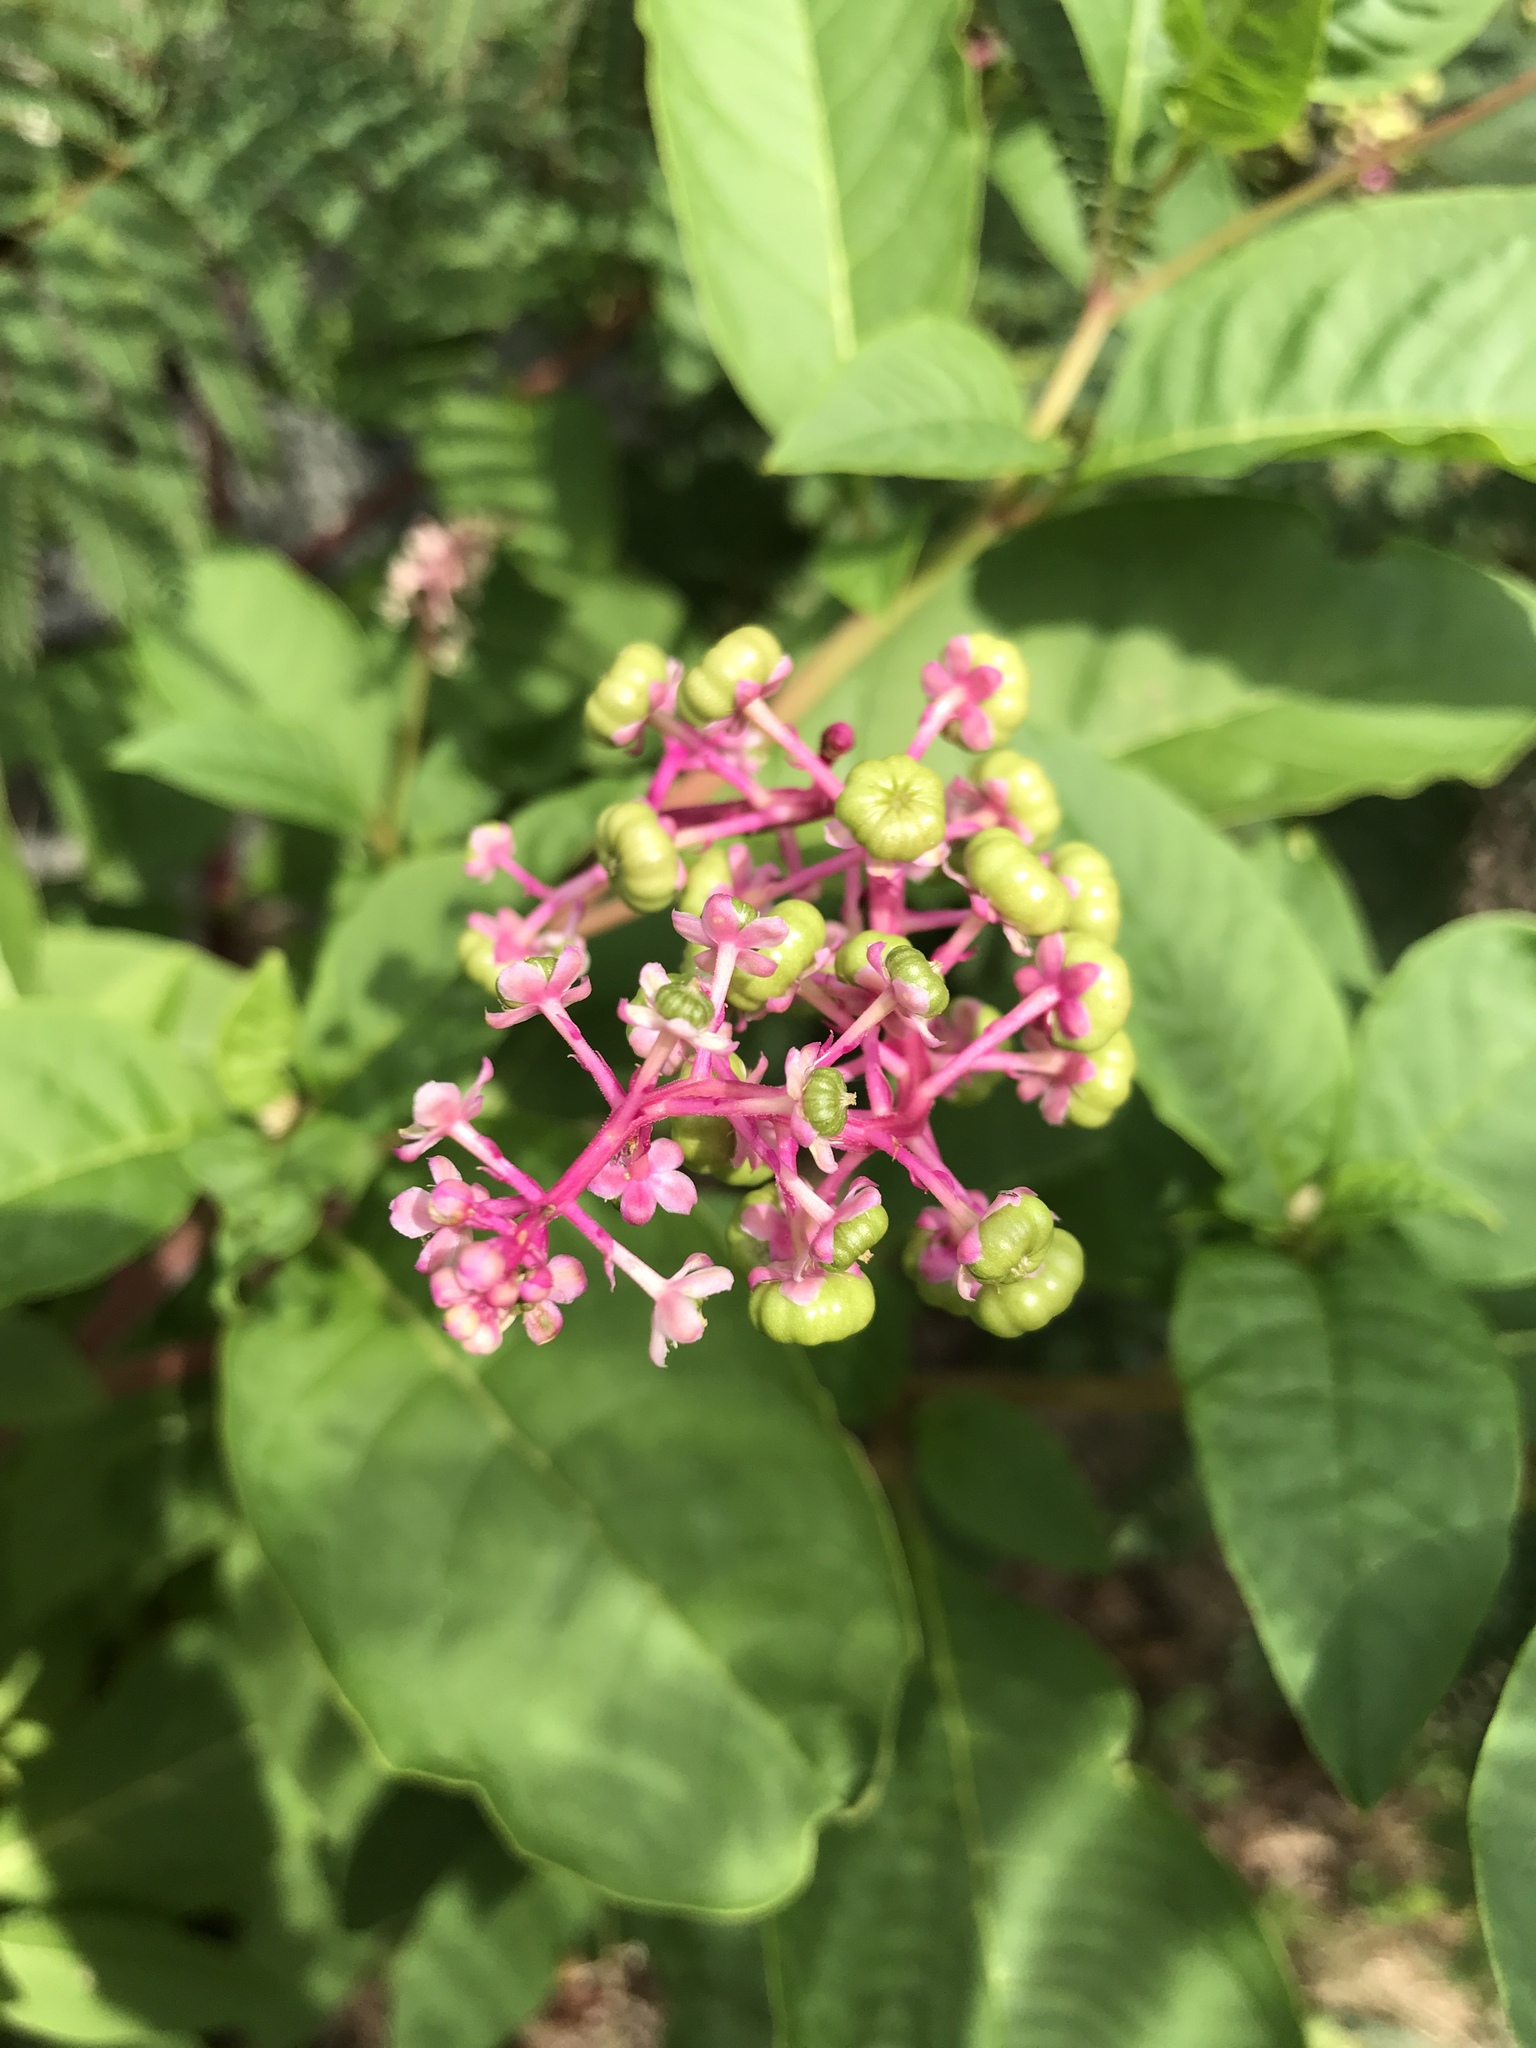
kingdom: Plantae
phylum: Tracheophyta
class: Magnoliopsida
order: Caryophyllales
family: Phytolaccaceae
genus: Phytolacca
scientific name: Phytolacca americana
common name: American pokeweed
